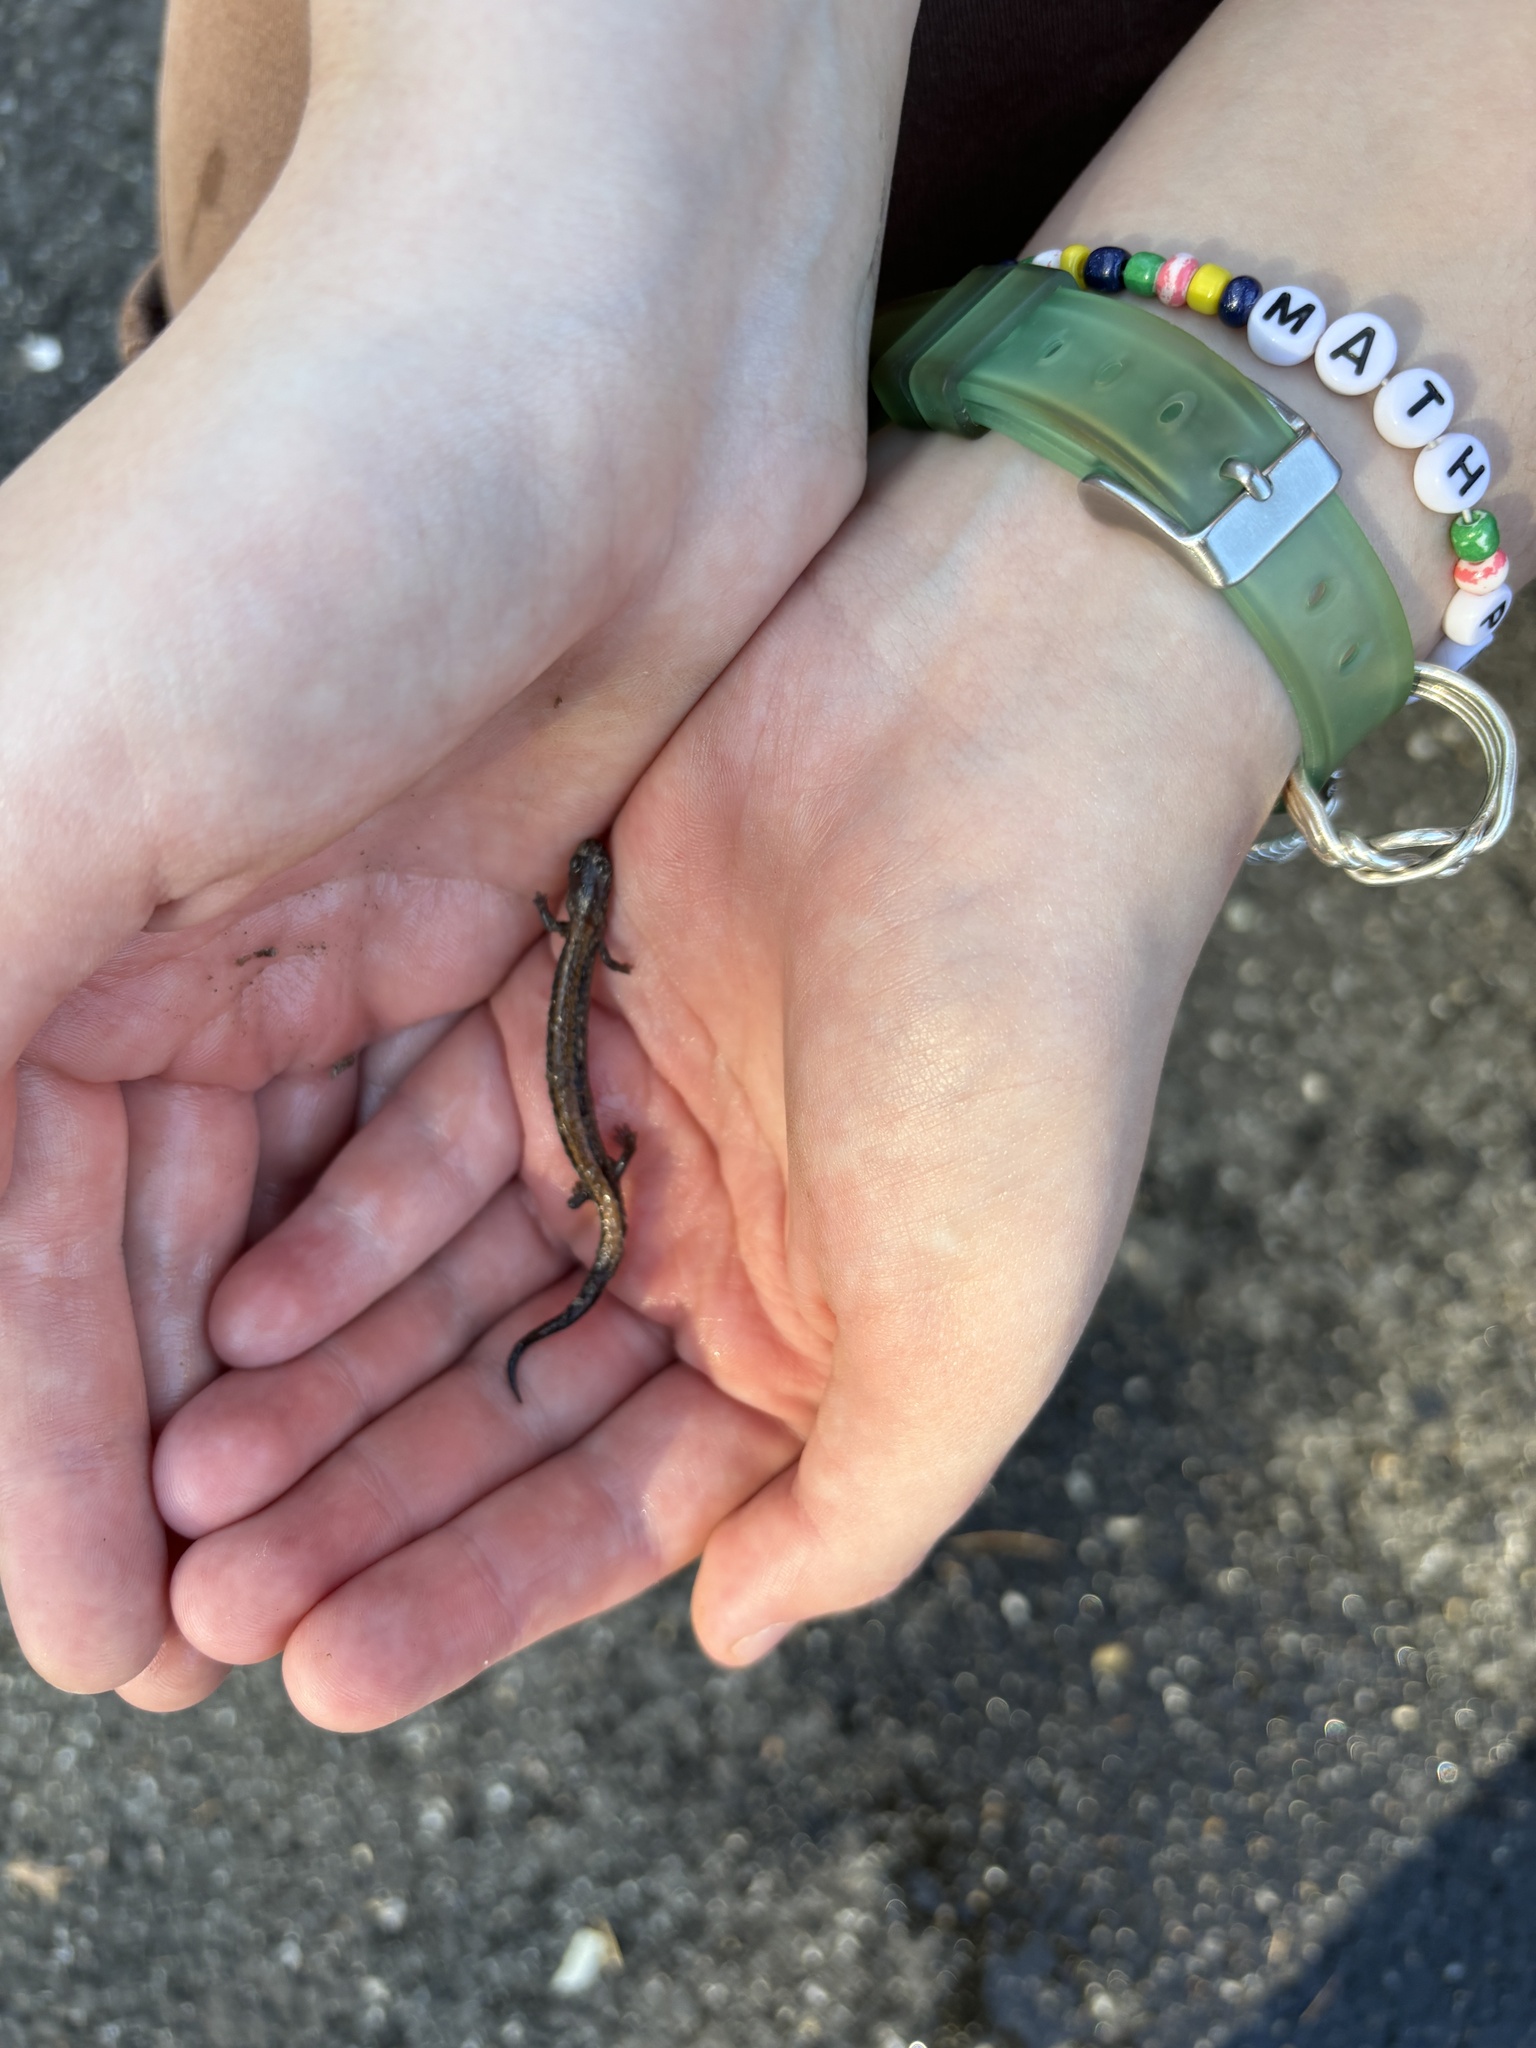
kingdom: Animalia
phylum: Chordata
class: Amphibia
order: Caudata
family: Plethodontidae
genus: Plethodon
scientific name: Plethodon cinereus
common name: Redback salamander
